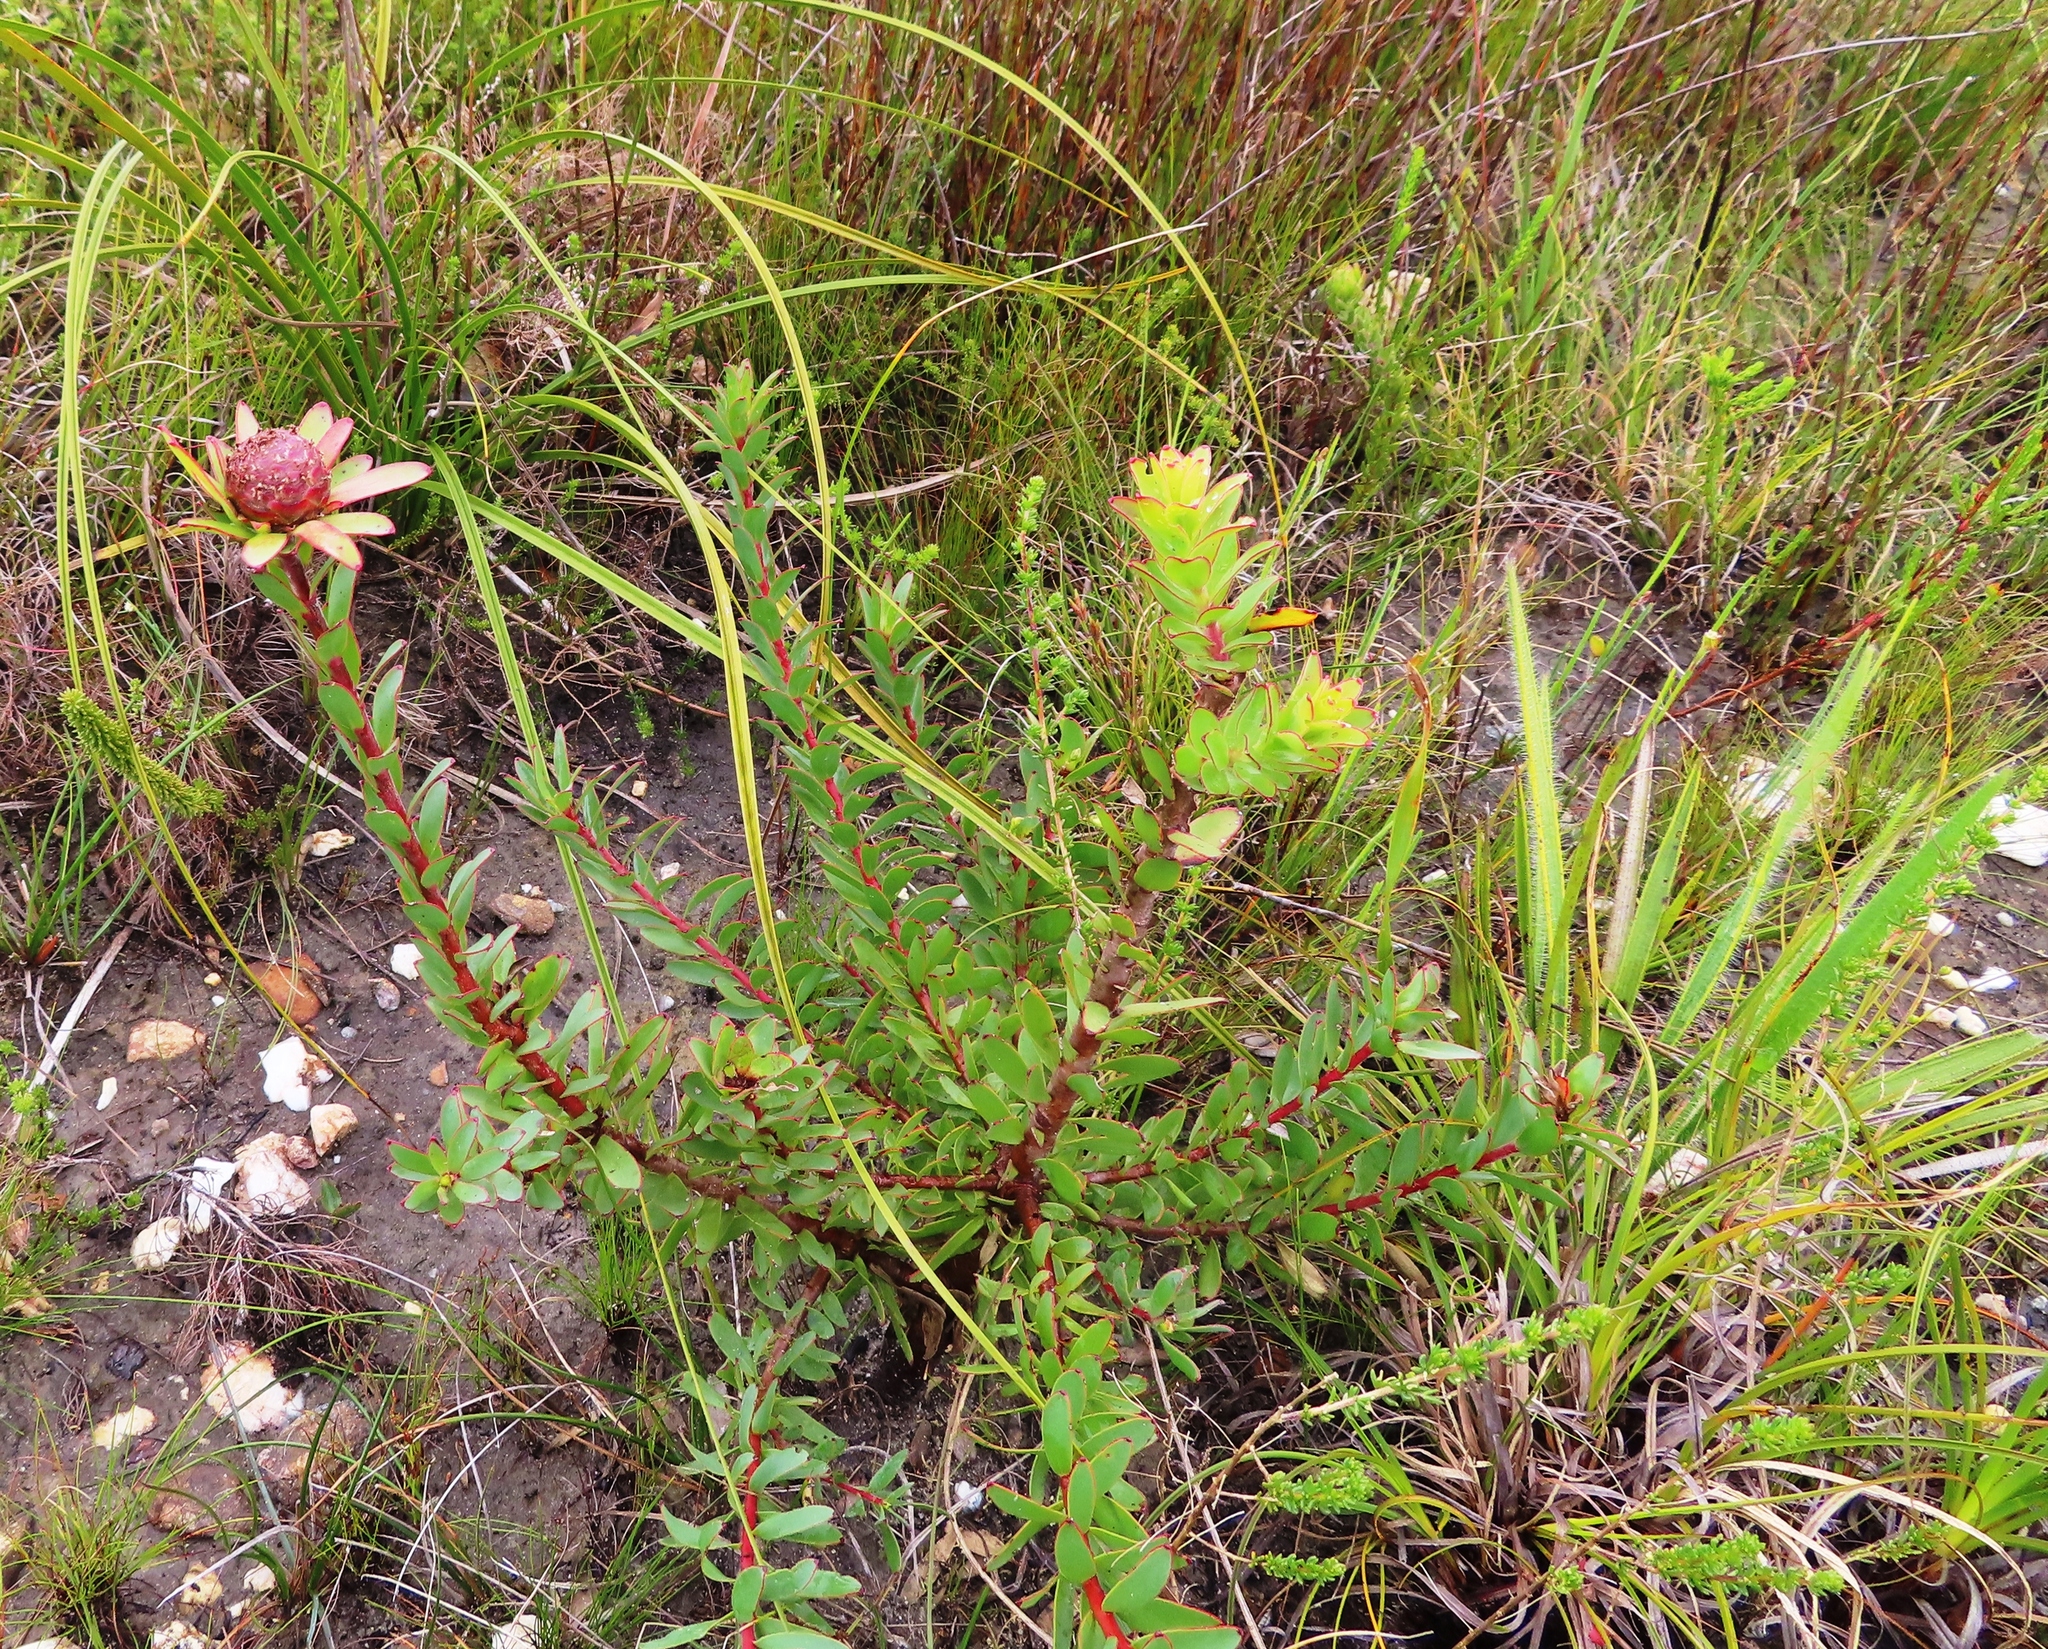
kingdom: Plantae
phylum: Tracheophyta
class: Magnoliopsida
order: Proteales
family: Proteaceae
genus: Leucadendron
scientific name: Leucadendron elimense
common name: Elim conebush
